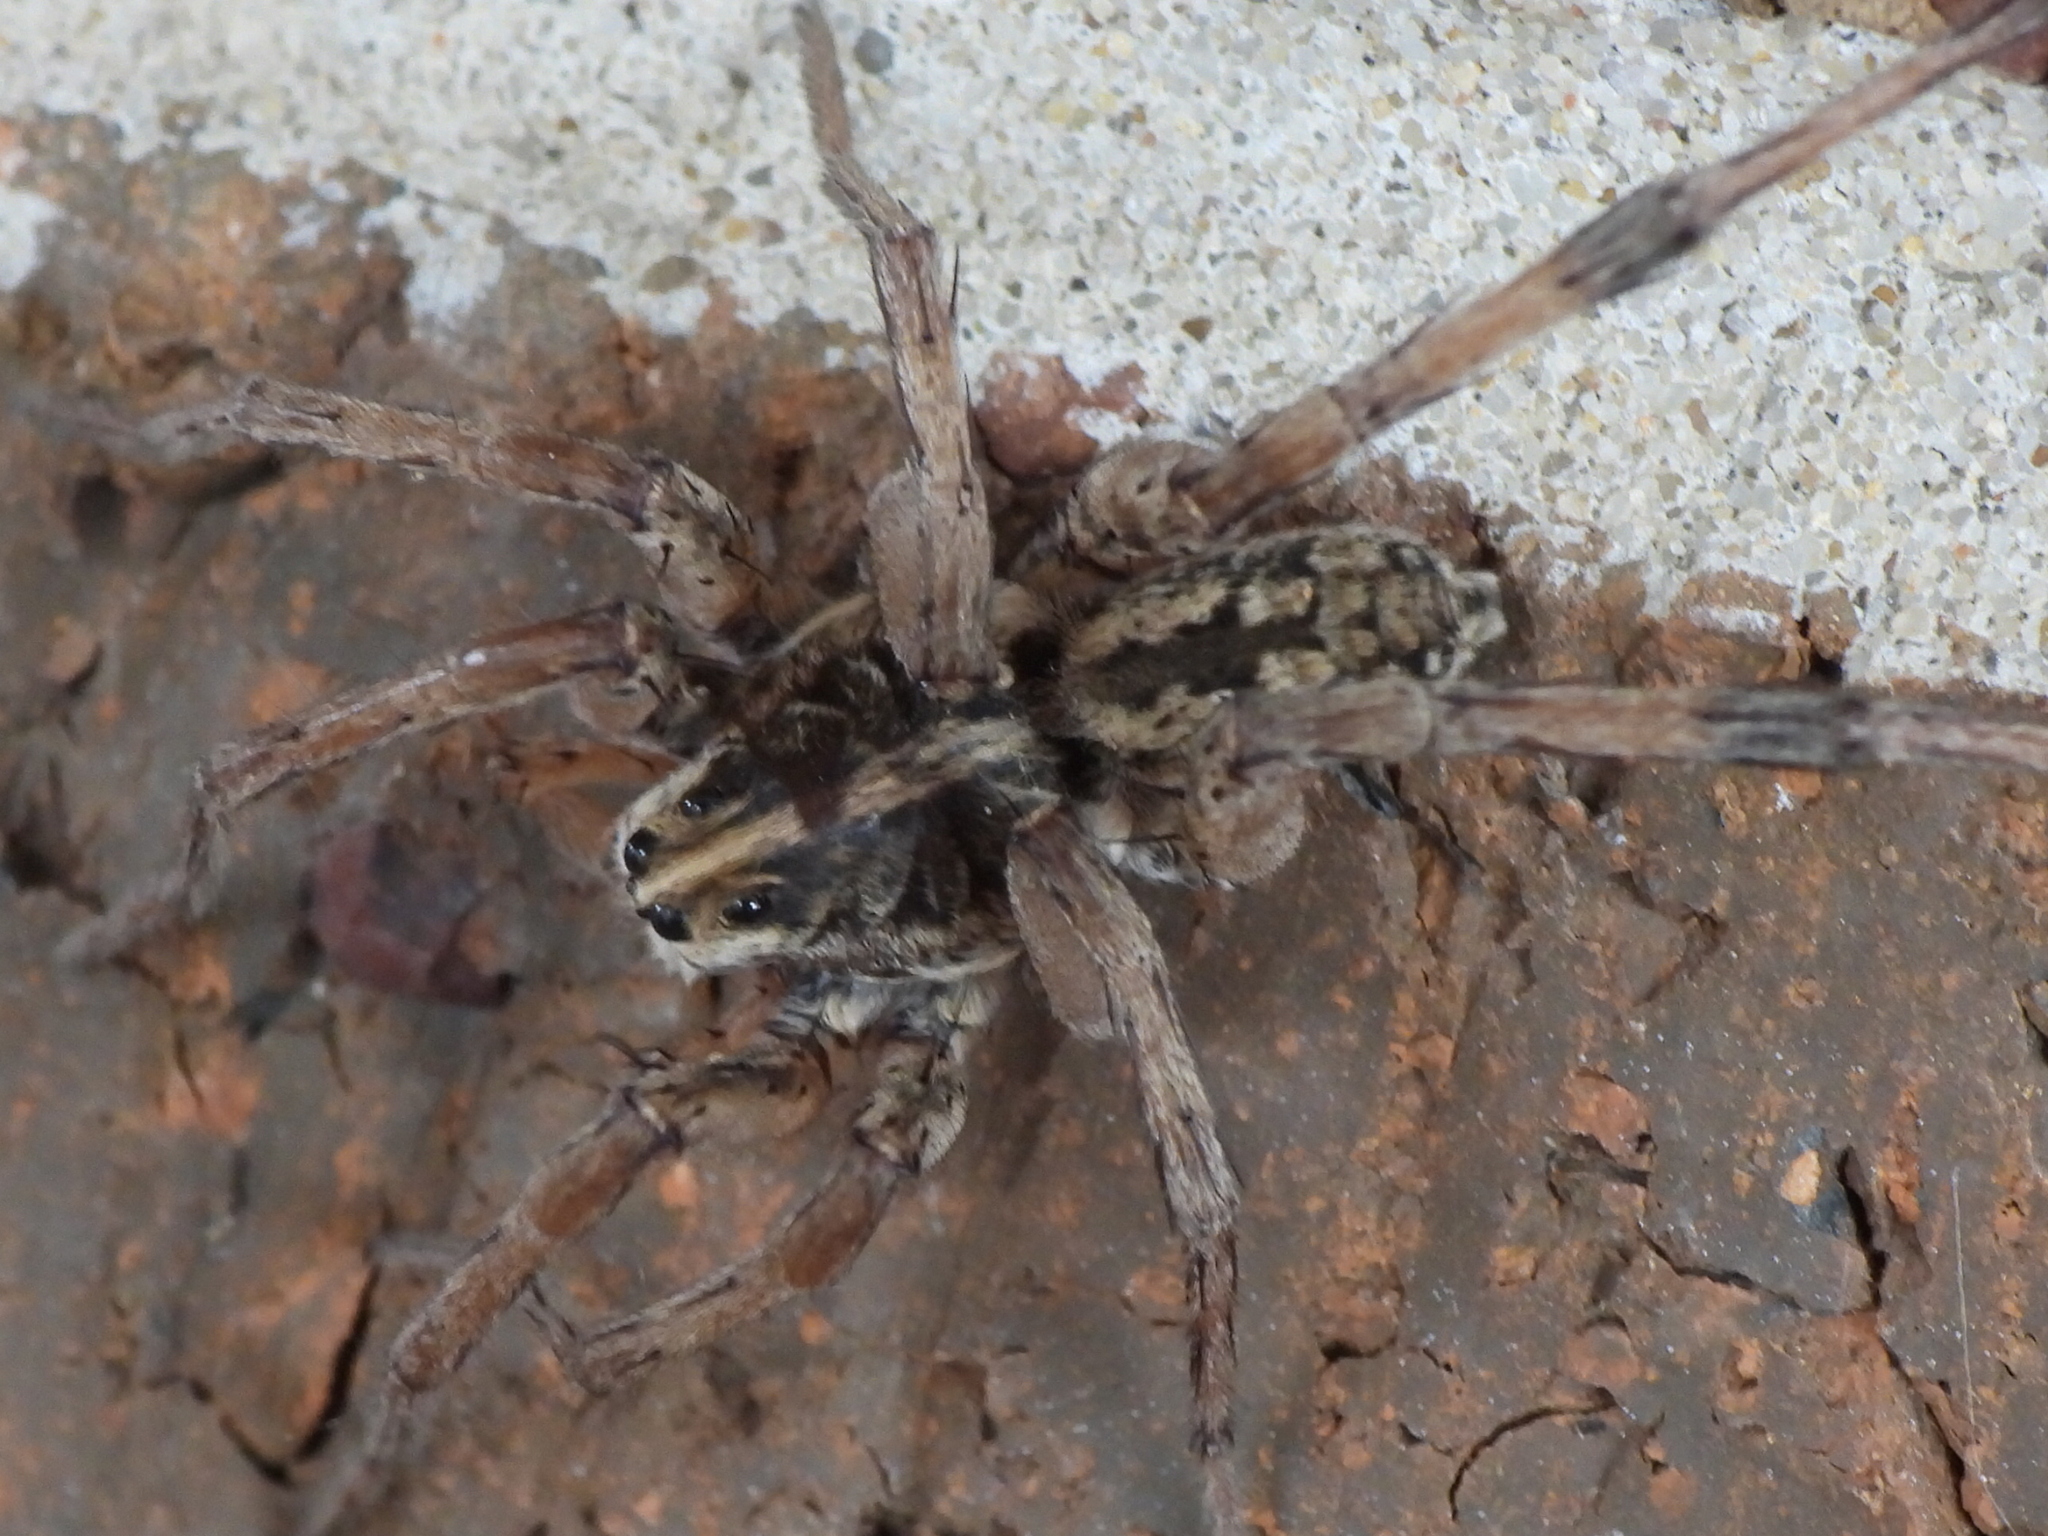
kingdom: Animalia
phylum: Arthropoda
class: Arachnida
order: Araneae
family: Lycosidae
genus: Hogna
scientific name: Hogna antelucana
